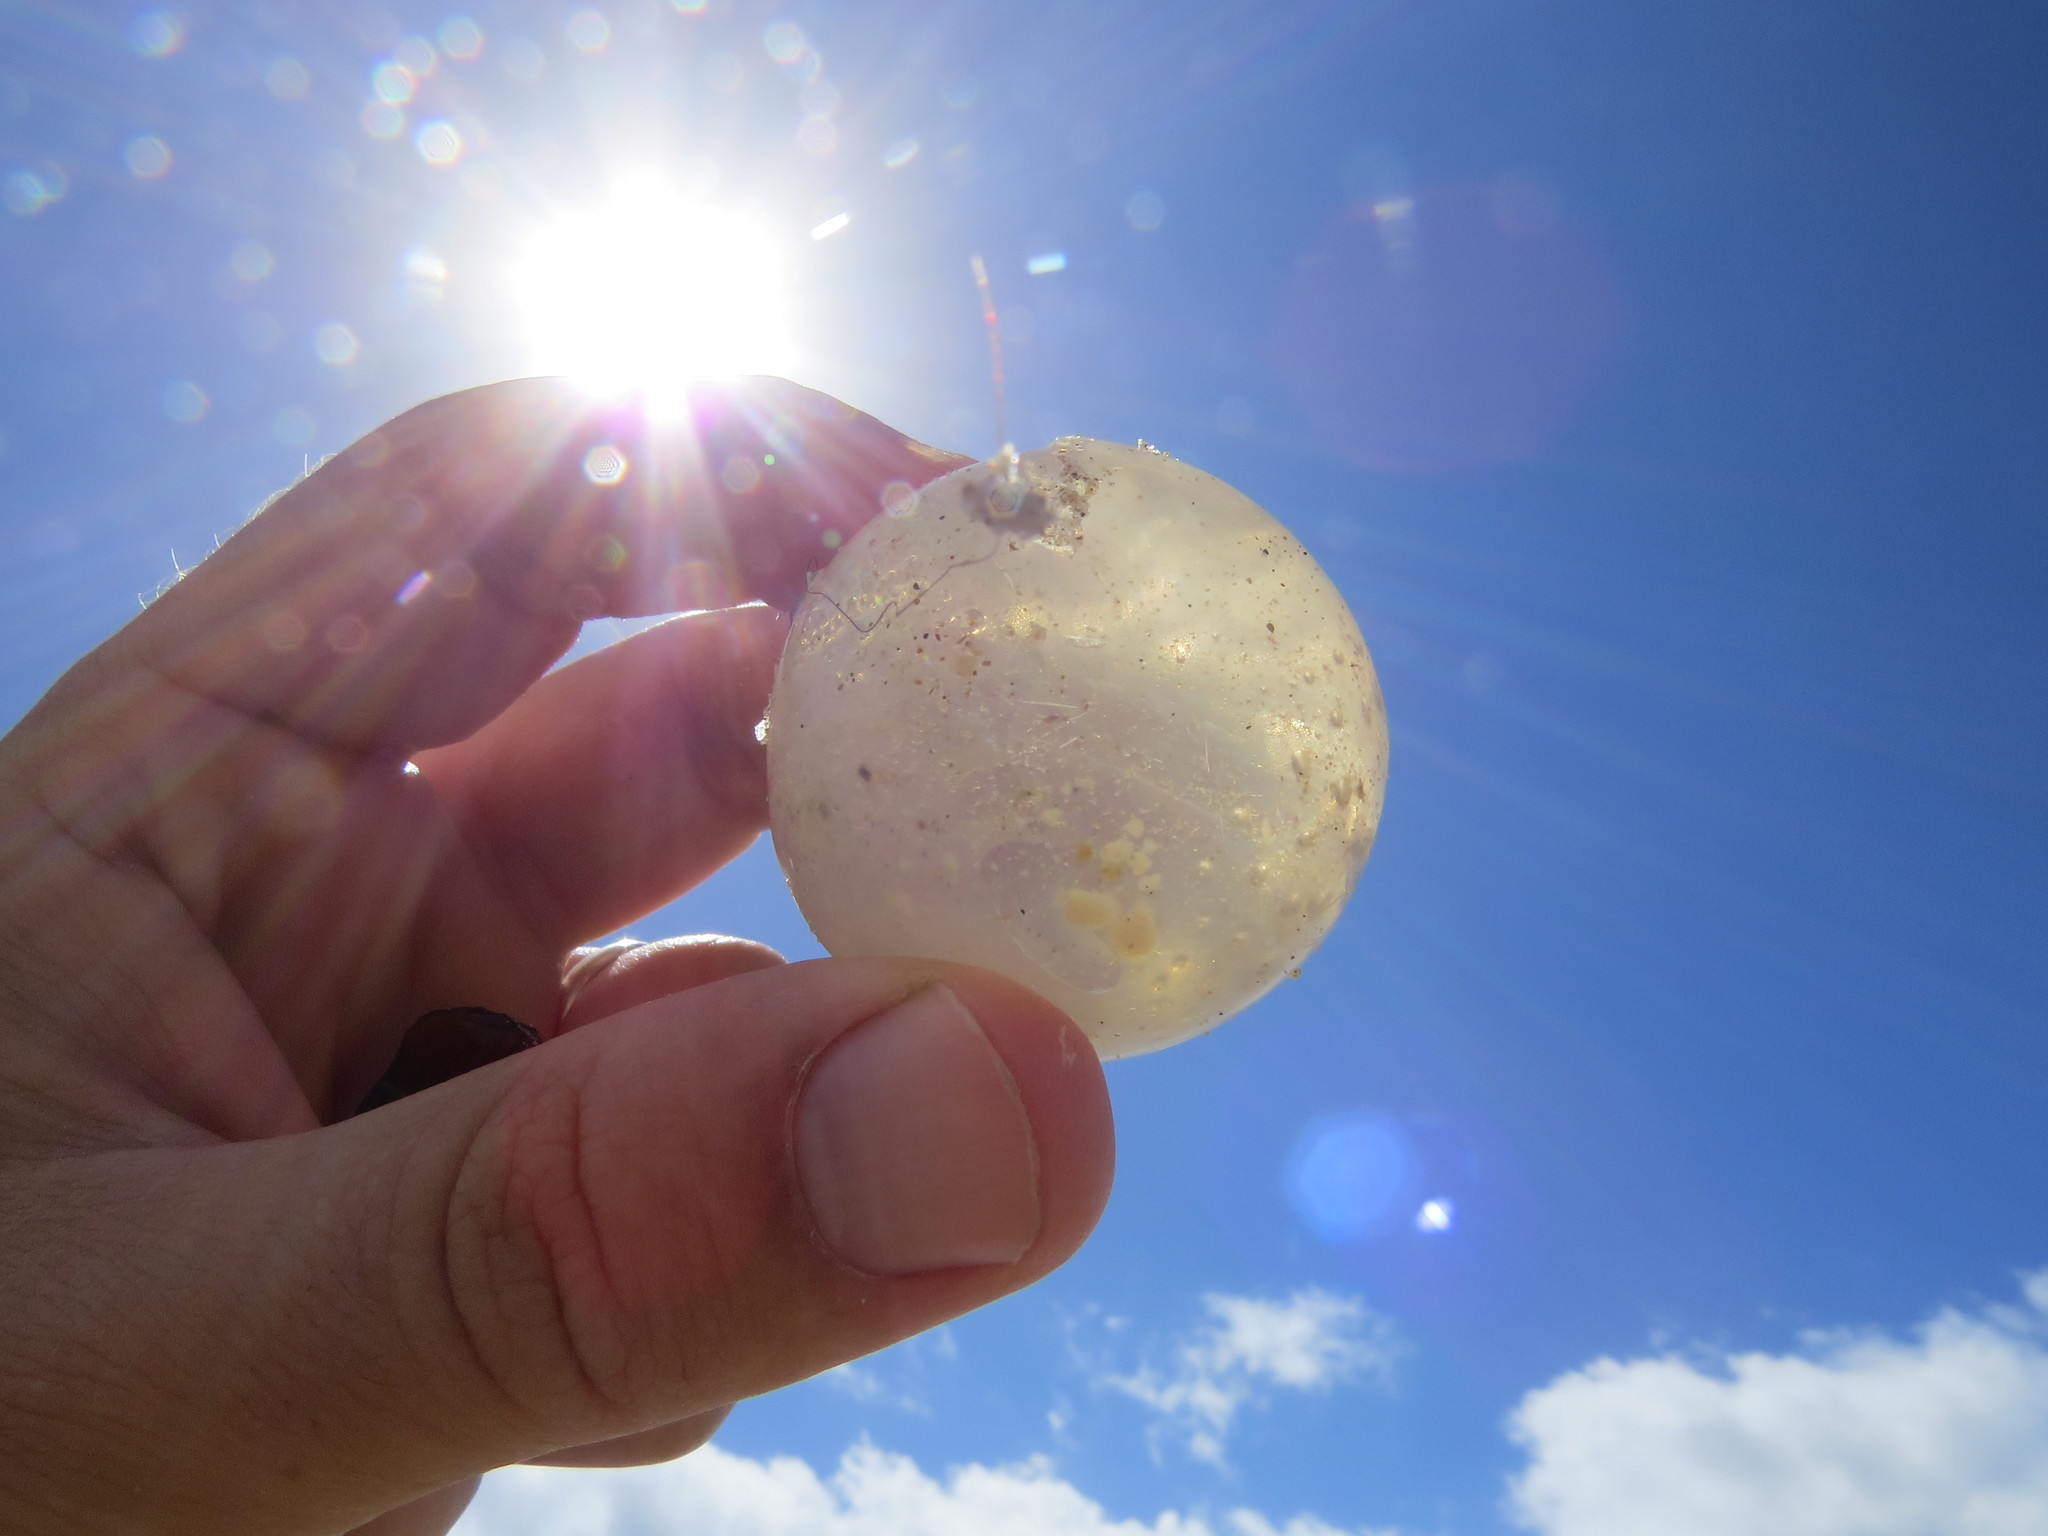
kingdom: Animalia
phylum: Mollusca
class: Gastropoda
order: Neogastropoda
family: Volutidae
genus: Pachycymbiola
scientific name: Pachycymbiola brasiliana
